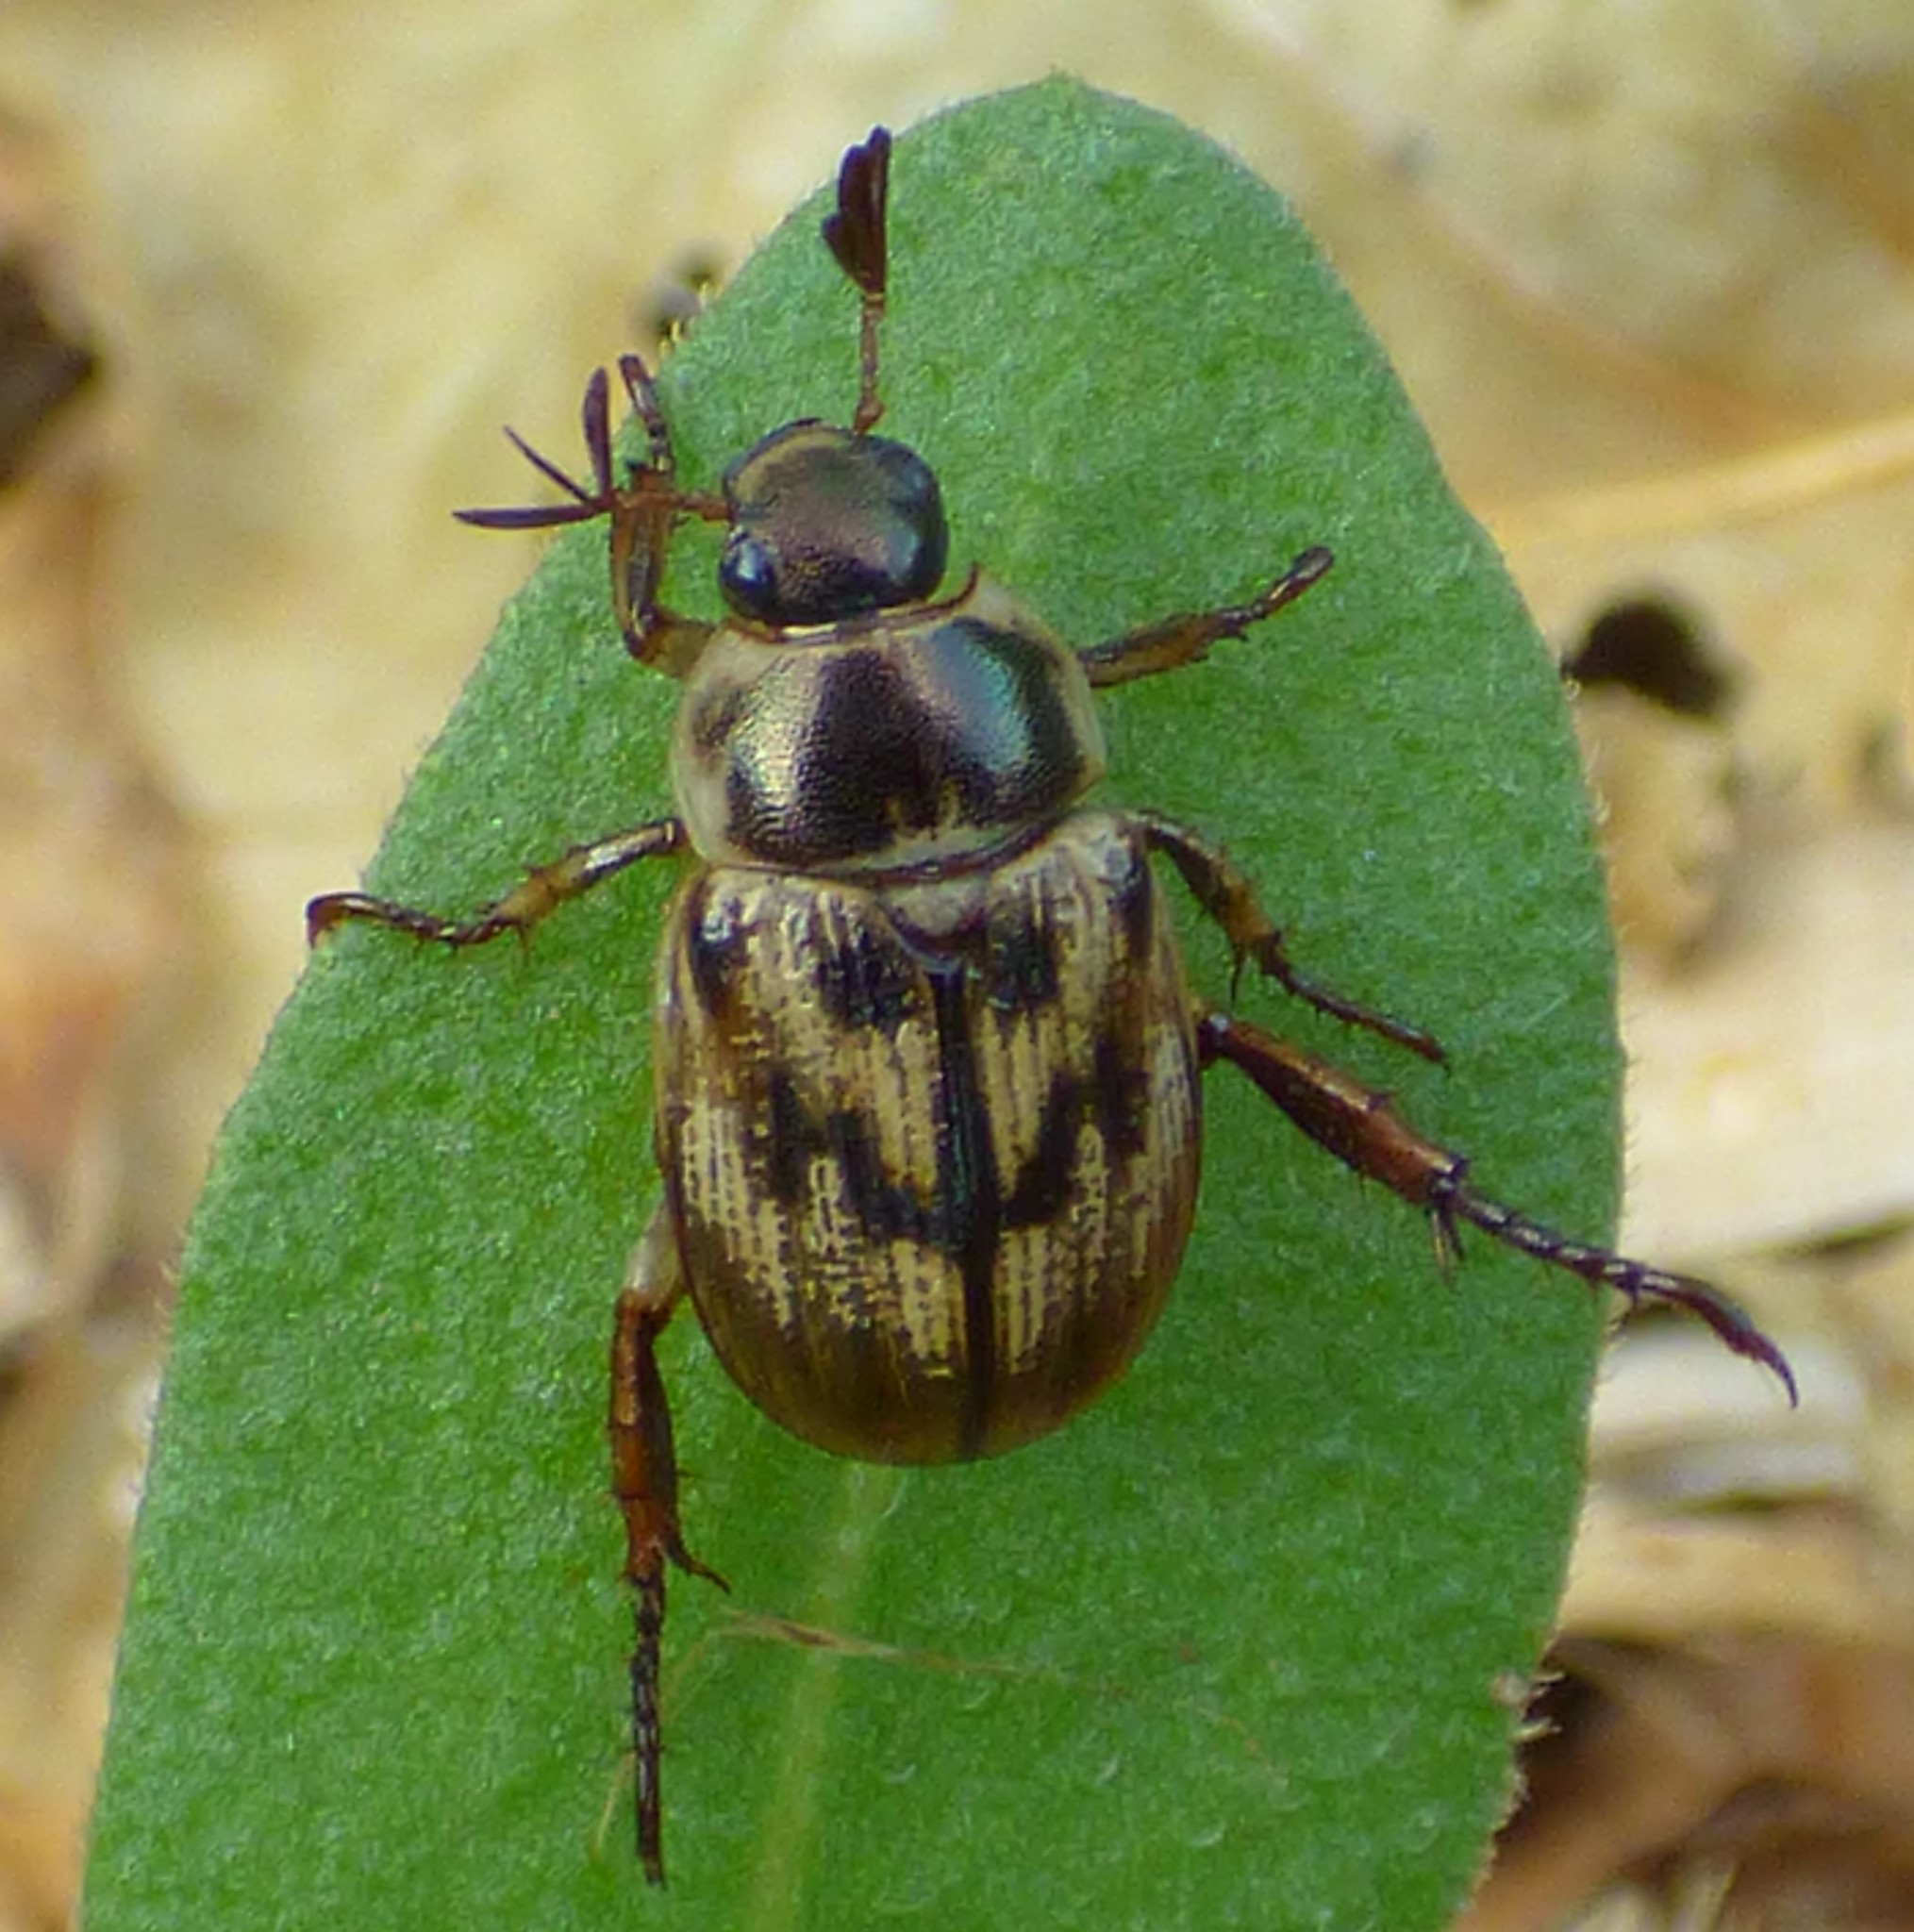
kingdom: Animalia
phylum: Arthropoda
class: Insecta
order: Coleoptera
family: Scarabaeidae
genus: Exomala
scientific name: Exomala orientalis
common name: Oriental beetle
